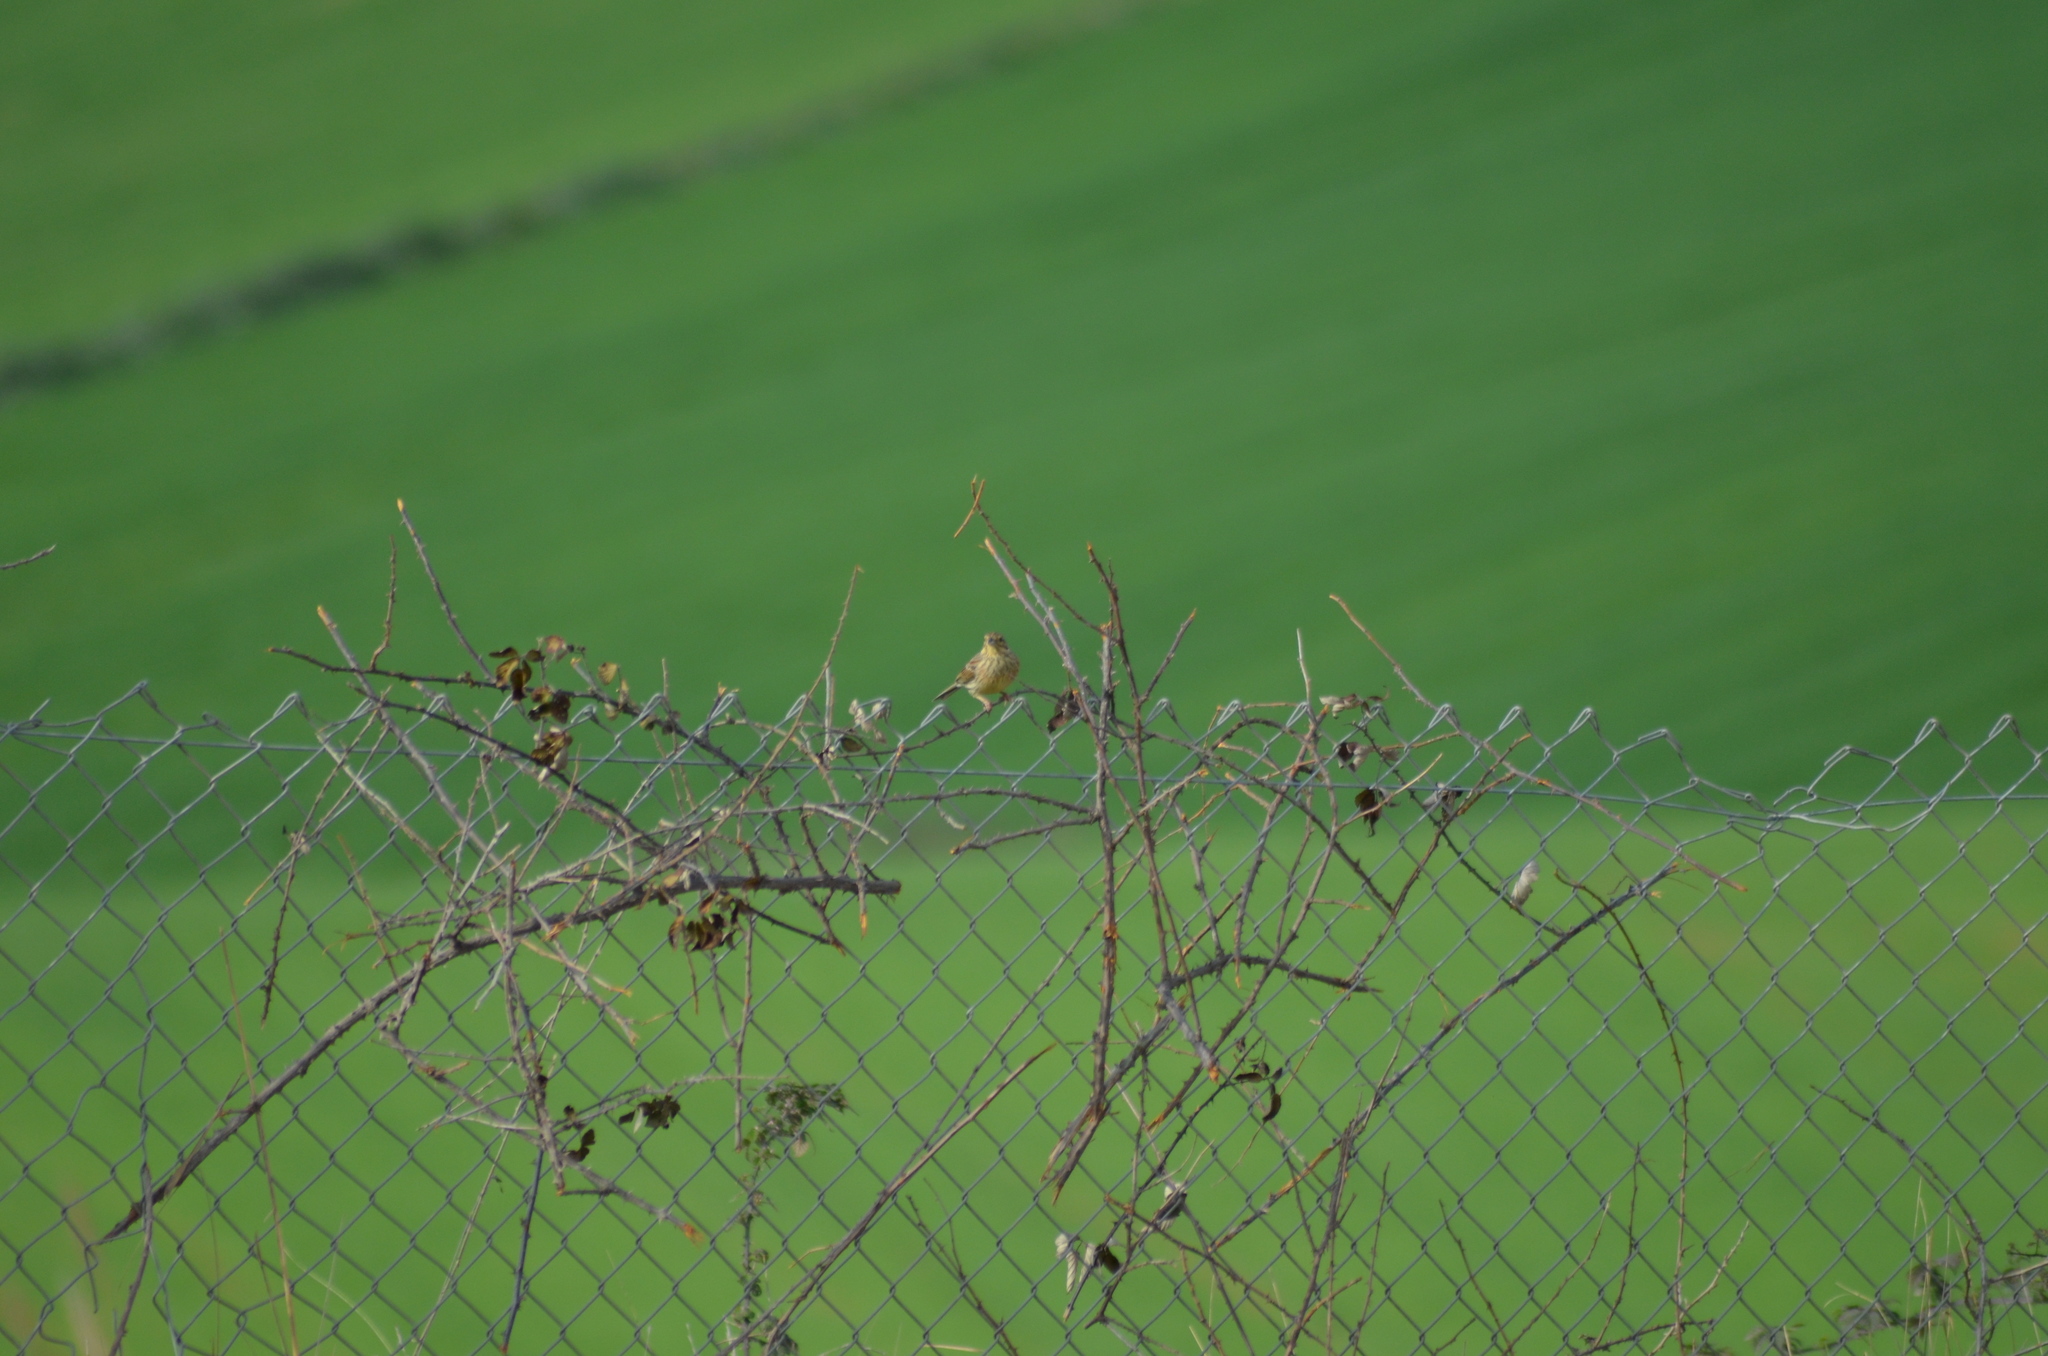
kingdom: Animalia
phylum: Chordata
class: Aves
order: Passeriformes
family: Emberizidae
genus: Emberiza
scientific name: Emberiza cirlus
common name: Cirl bunting
